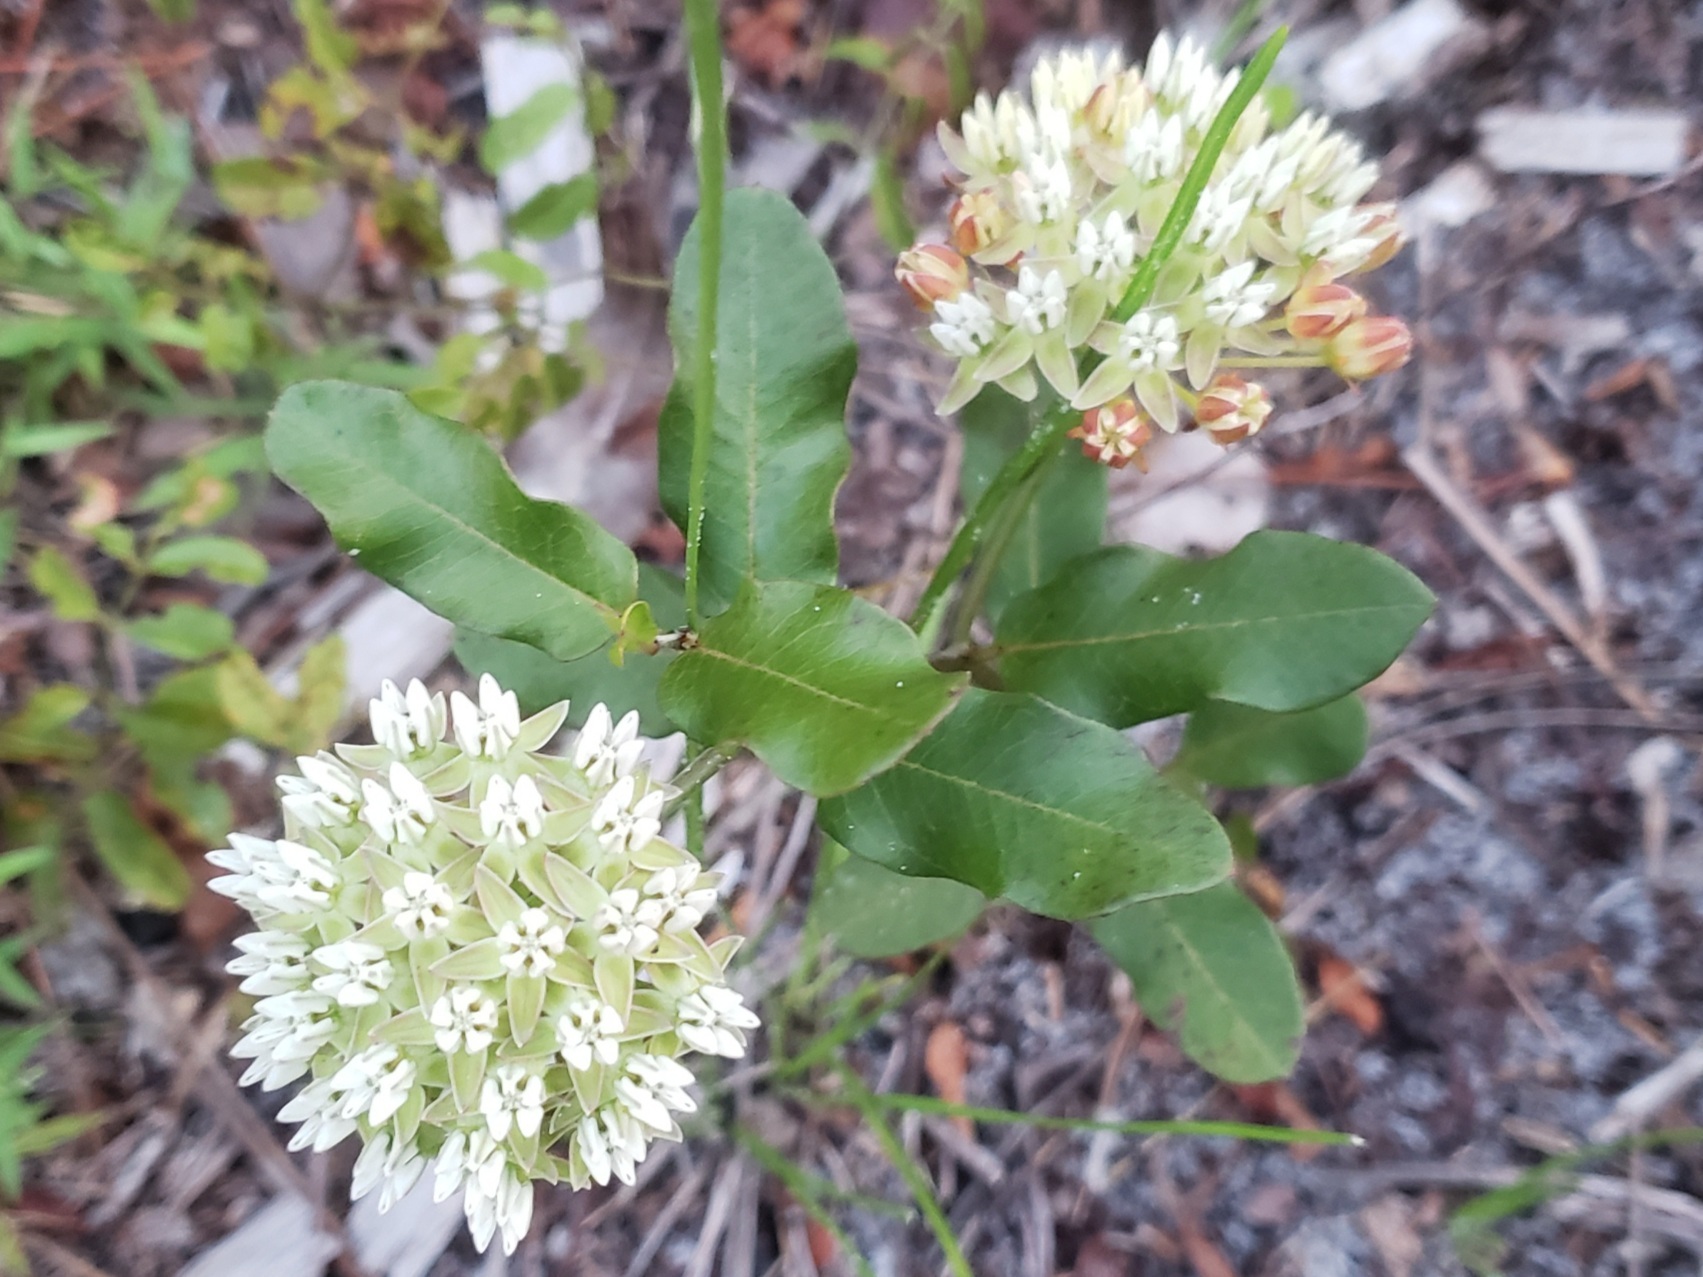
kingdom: Plantae
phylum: Tracheophyta
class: Magnoliopsida
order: Gentianales
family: Apocynaceae
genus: Asclepias
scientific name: Asclepias curtissii
